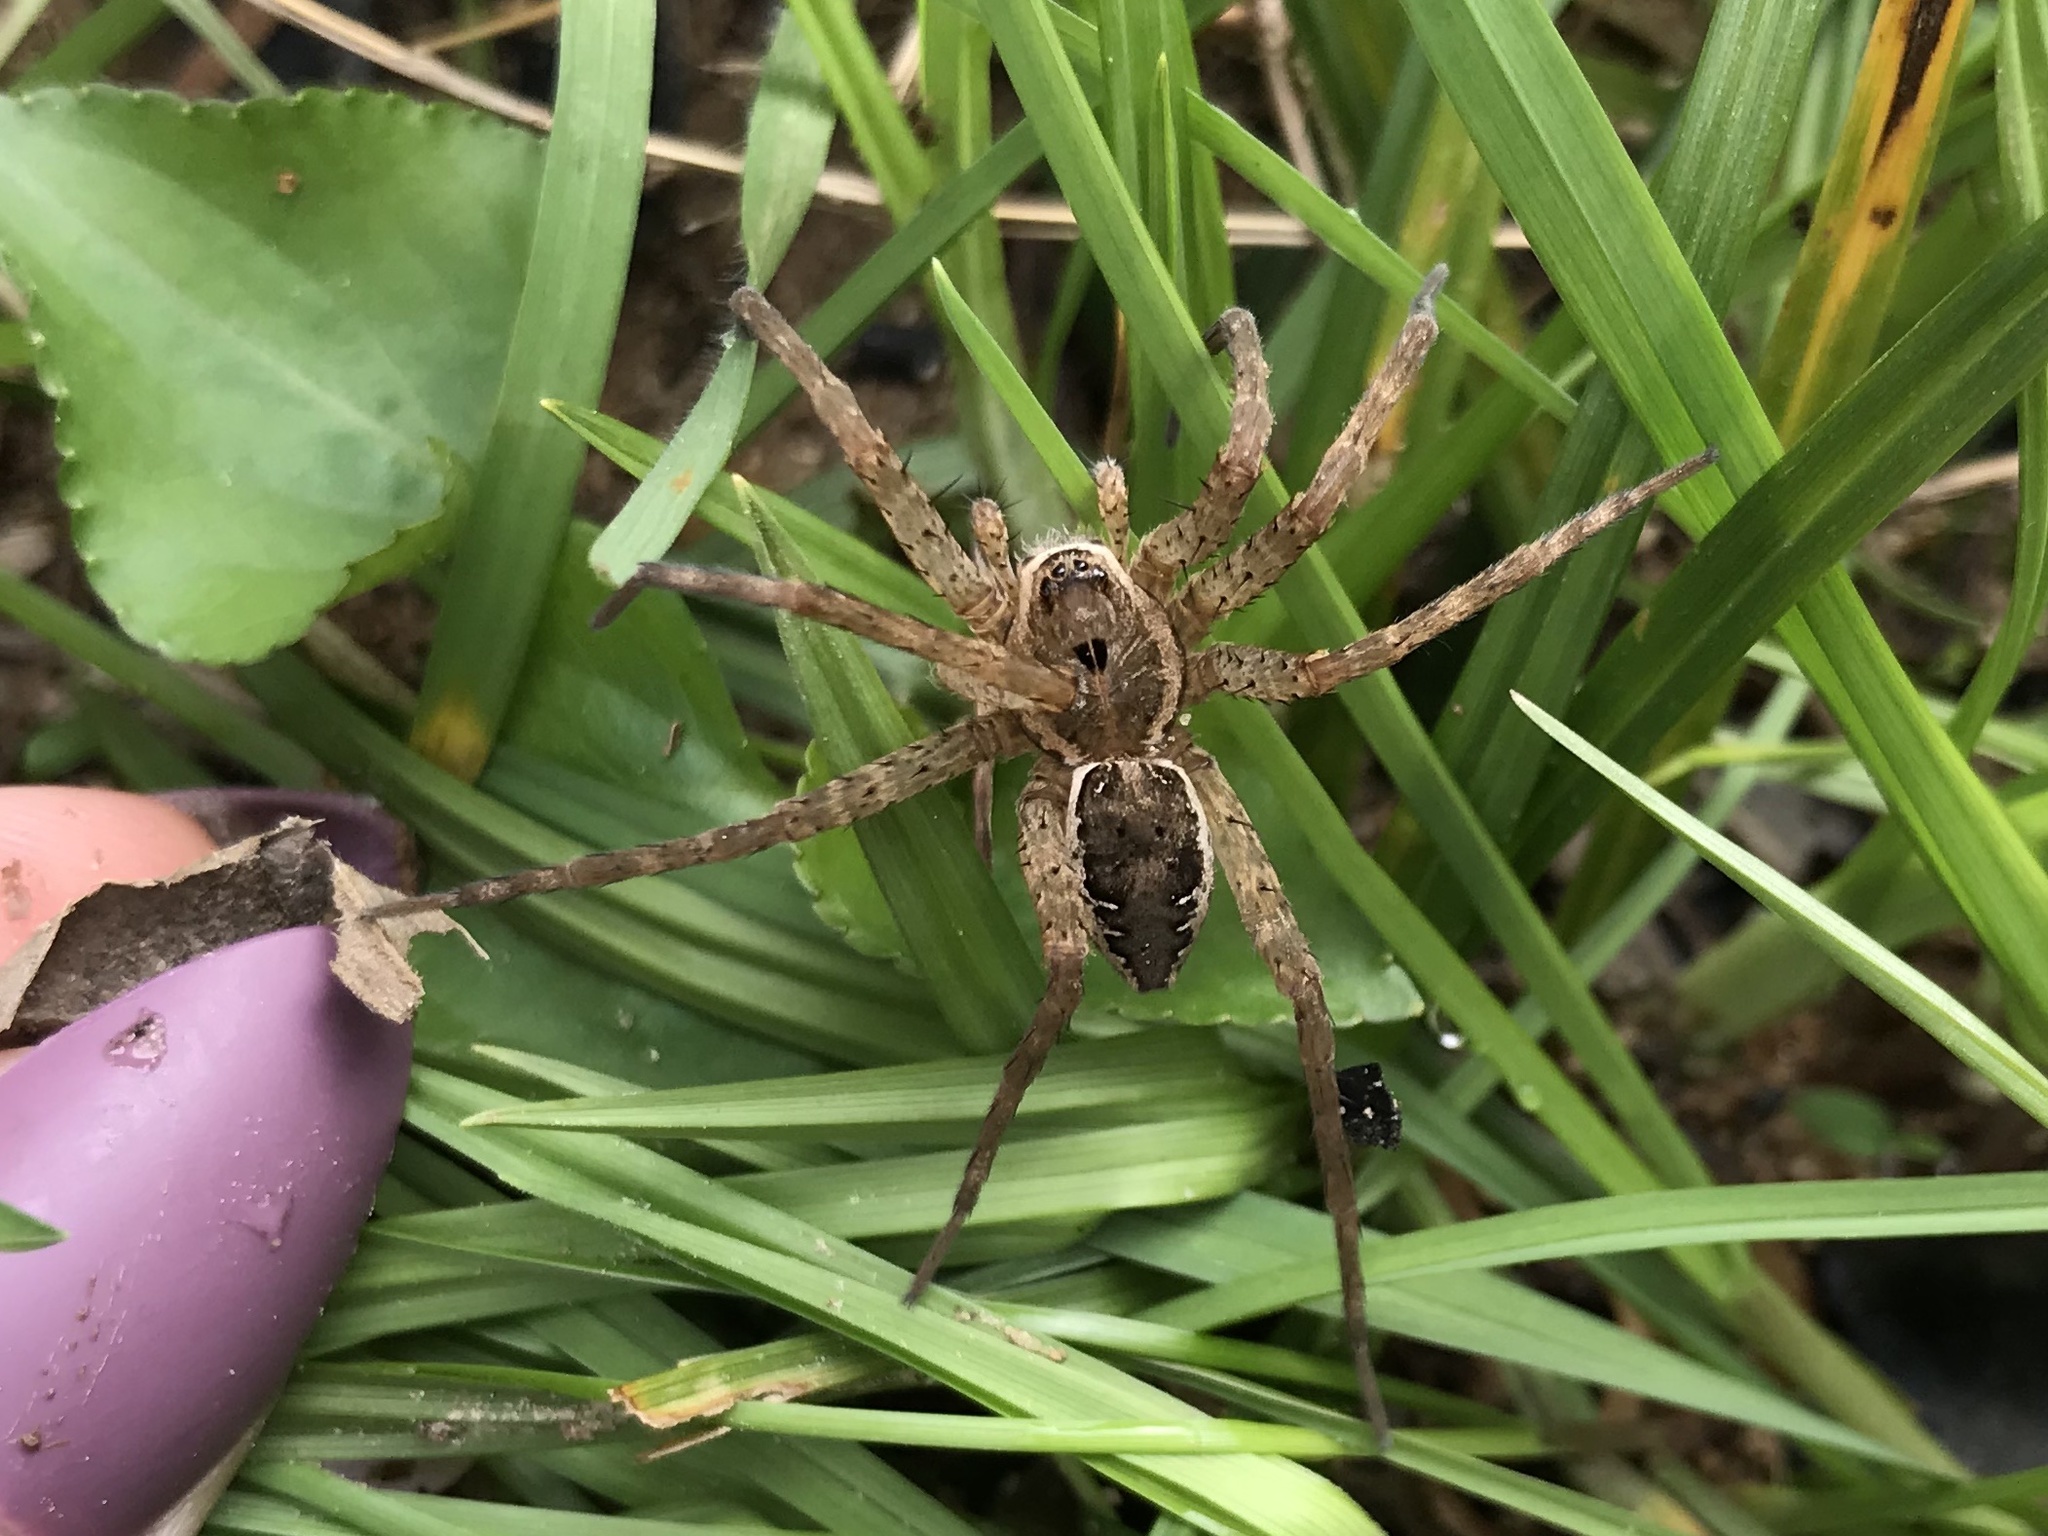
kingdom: Animalia
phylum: Arthropoda
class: Arachnida
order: Araneae
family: Pisauridae
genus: Dolomedes
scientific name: Dolomedes vittatus
